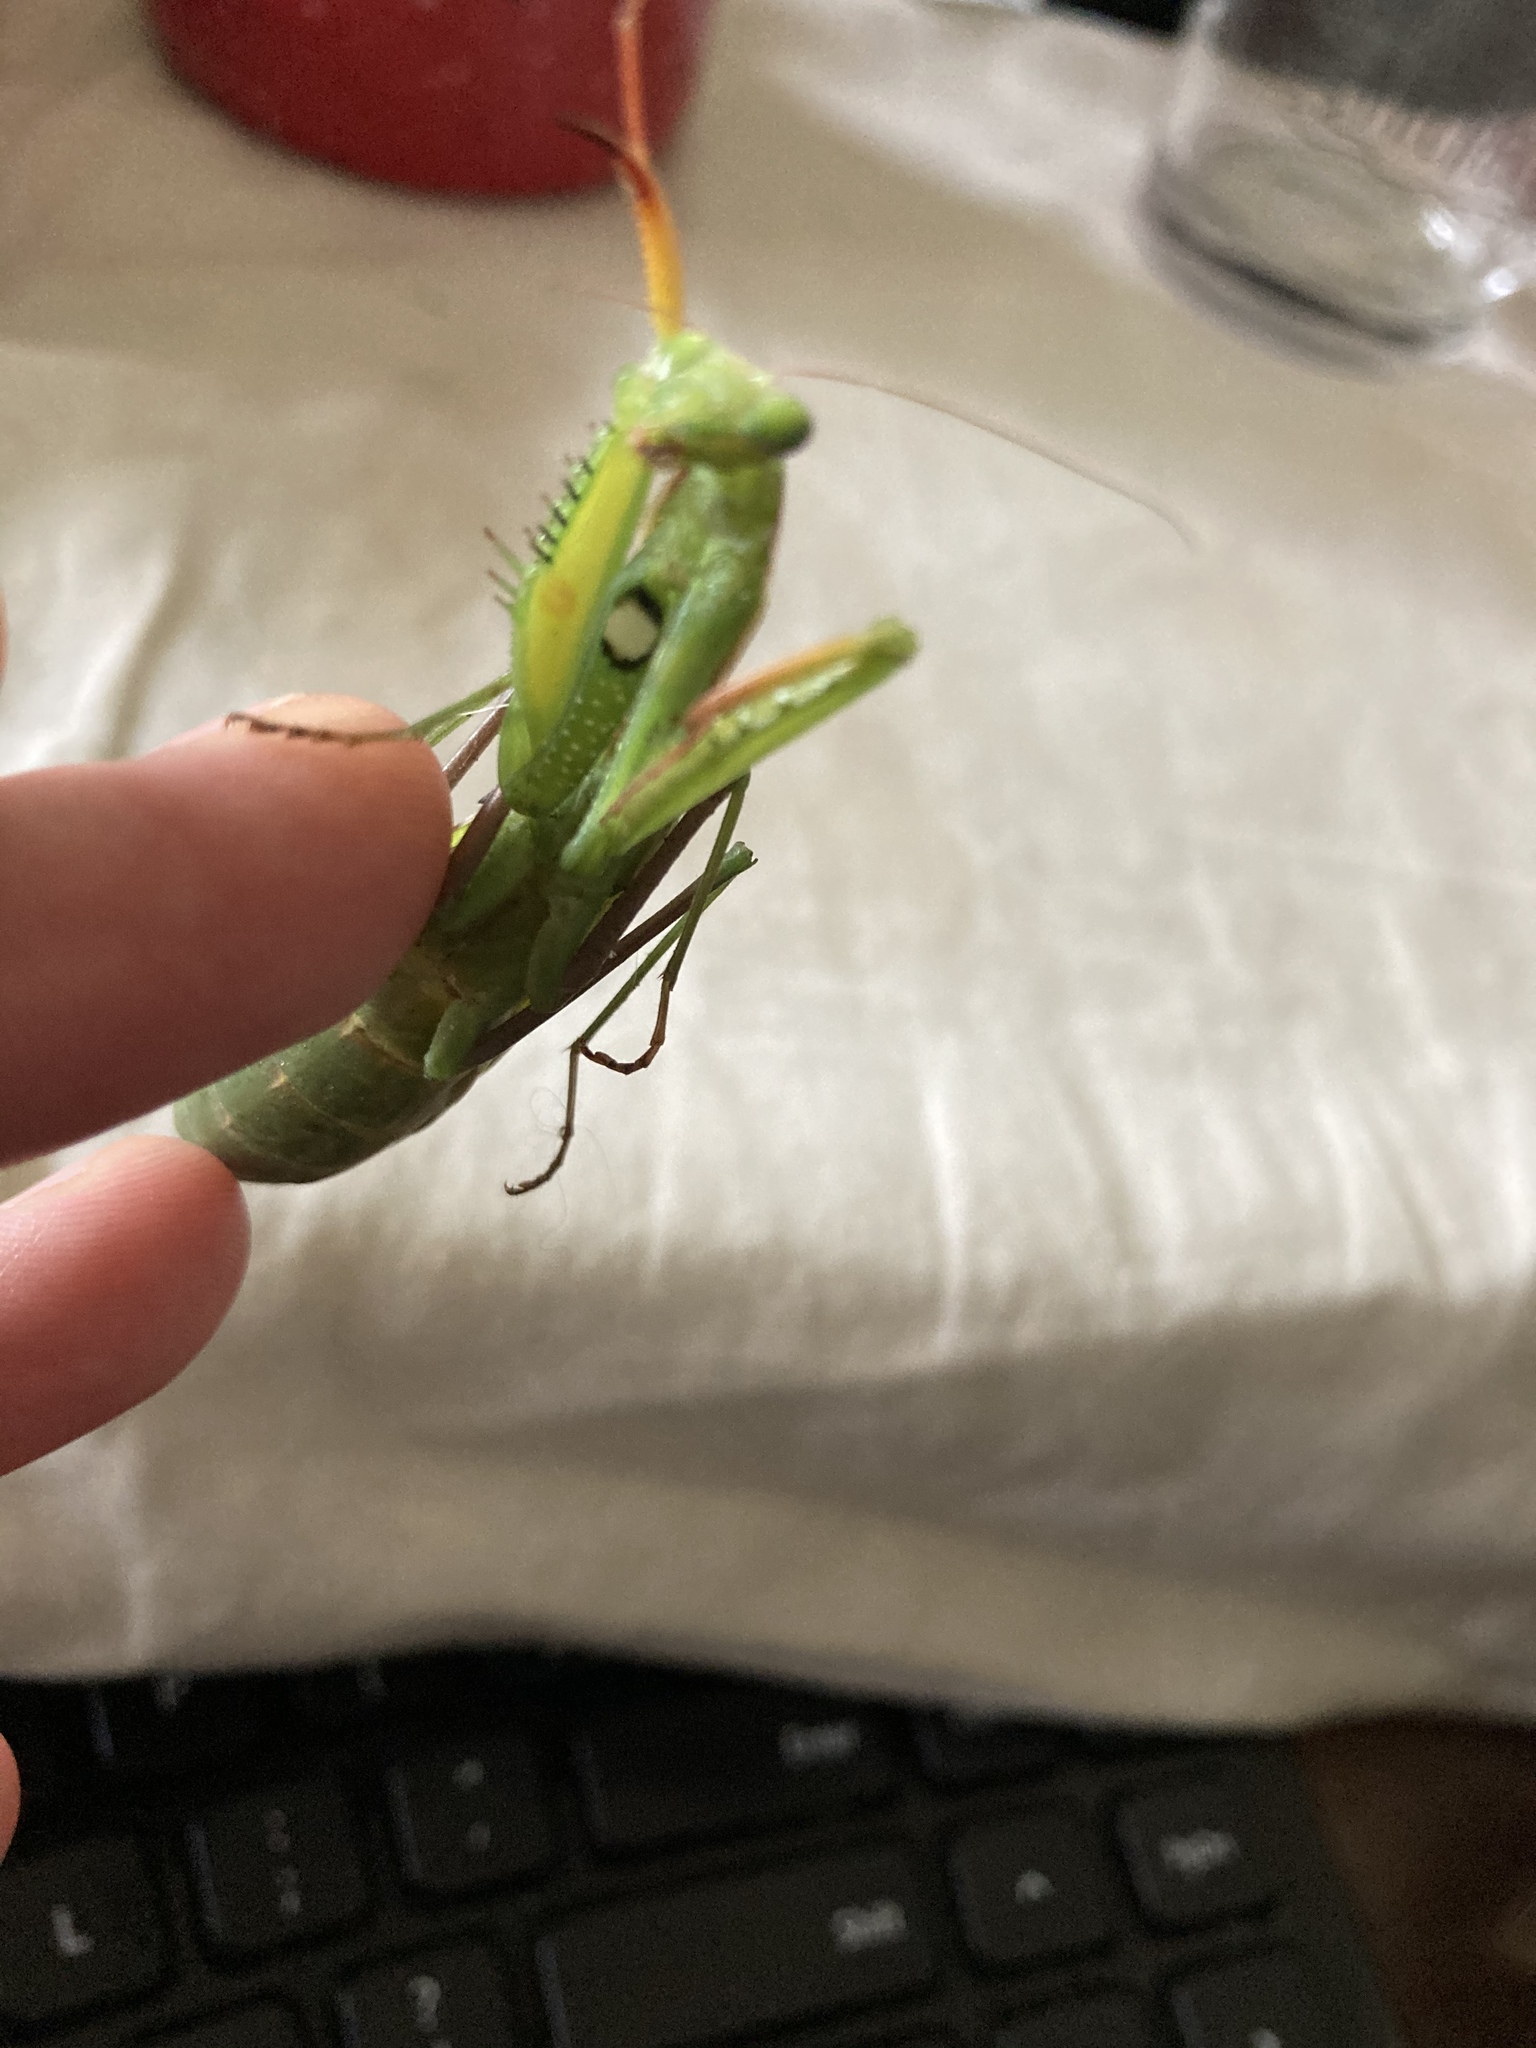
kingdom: Animalia
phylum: Arthropoda
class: Insecta
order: Mantodea
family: Mantidae
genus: Mantis
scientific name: Mantis religiosa
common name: Praying mantis
